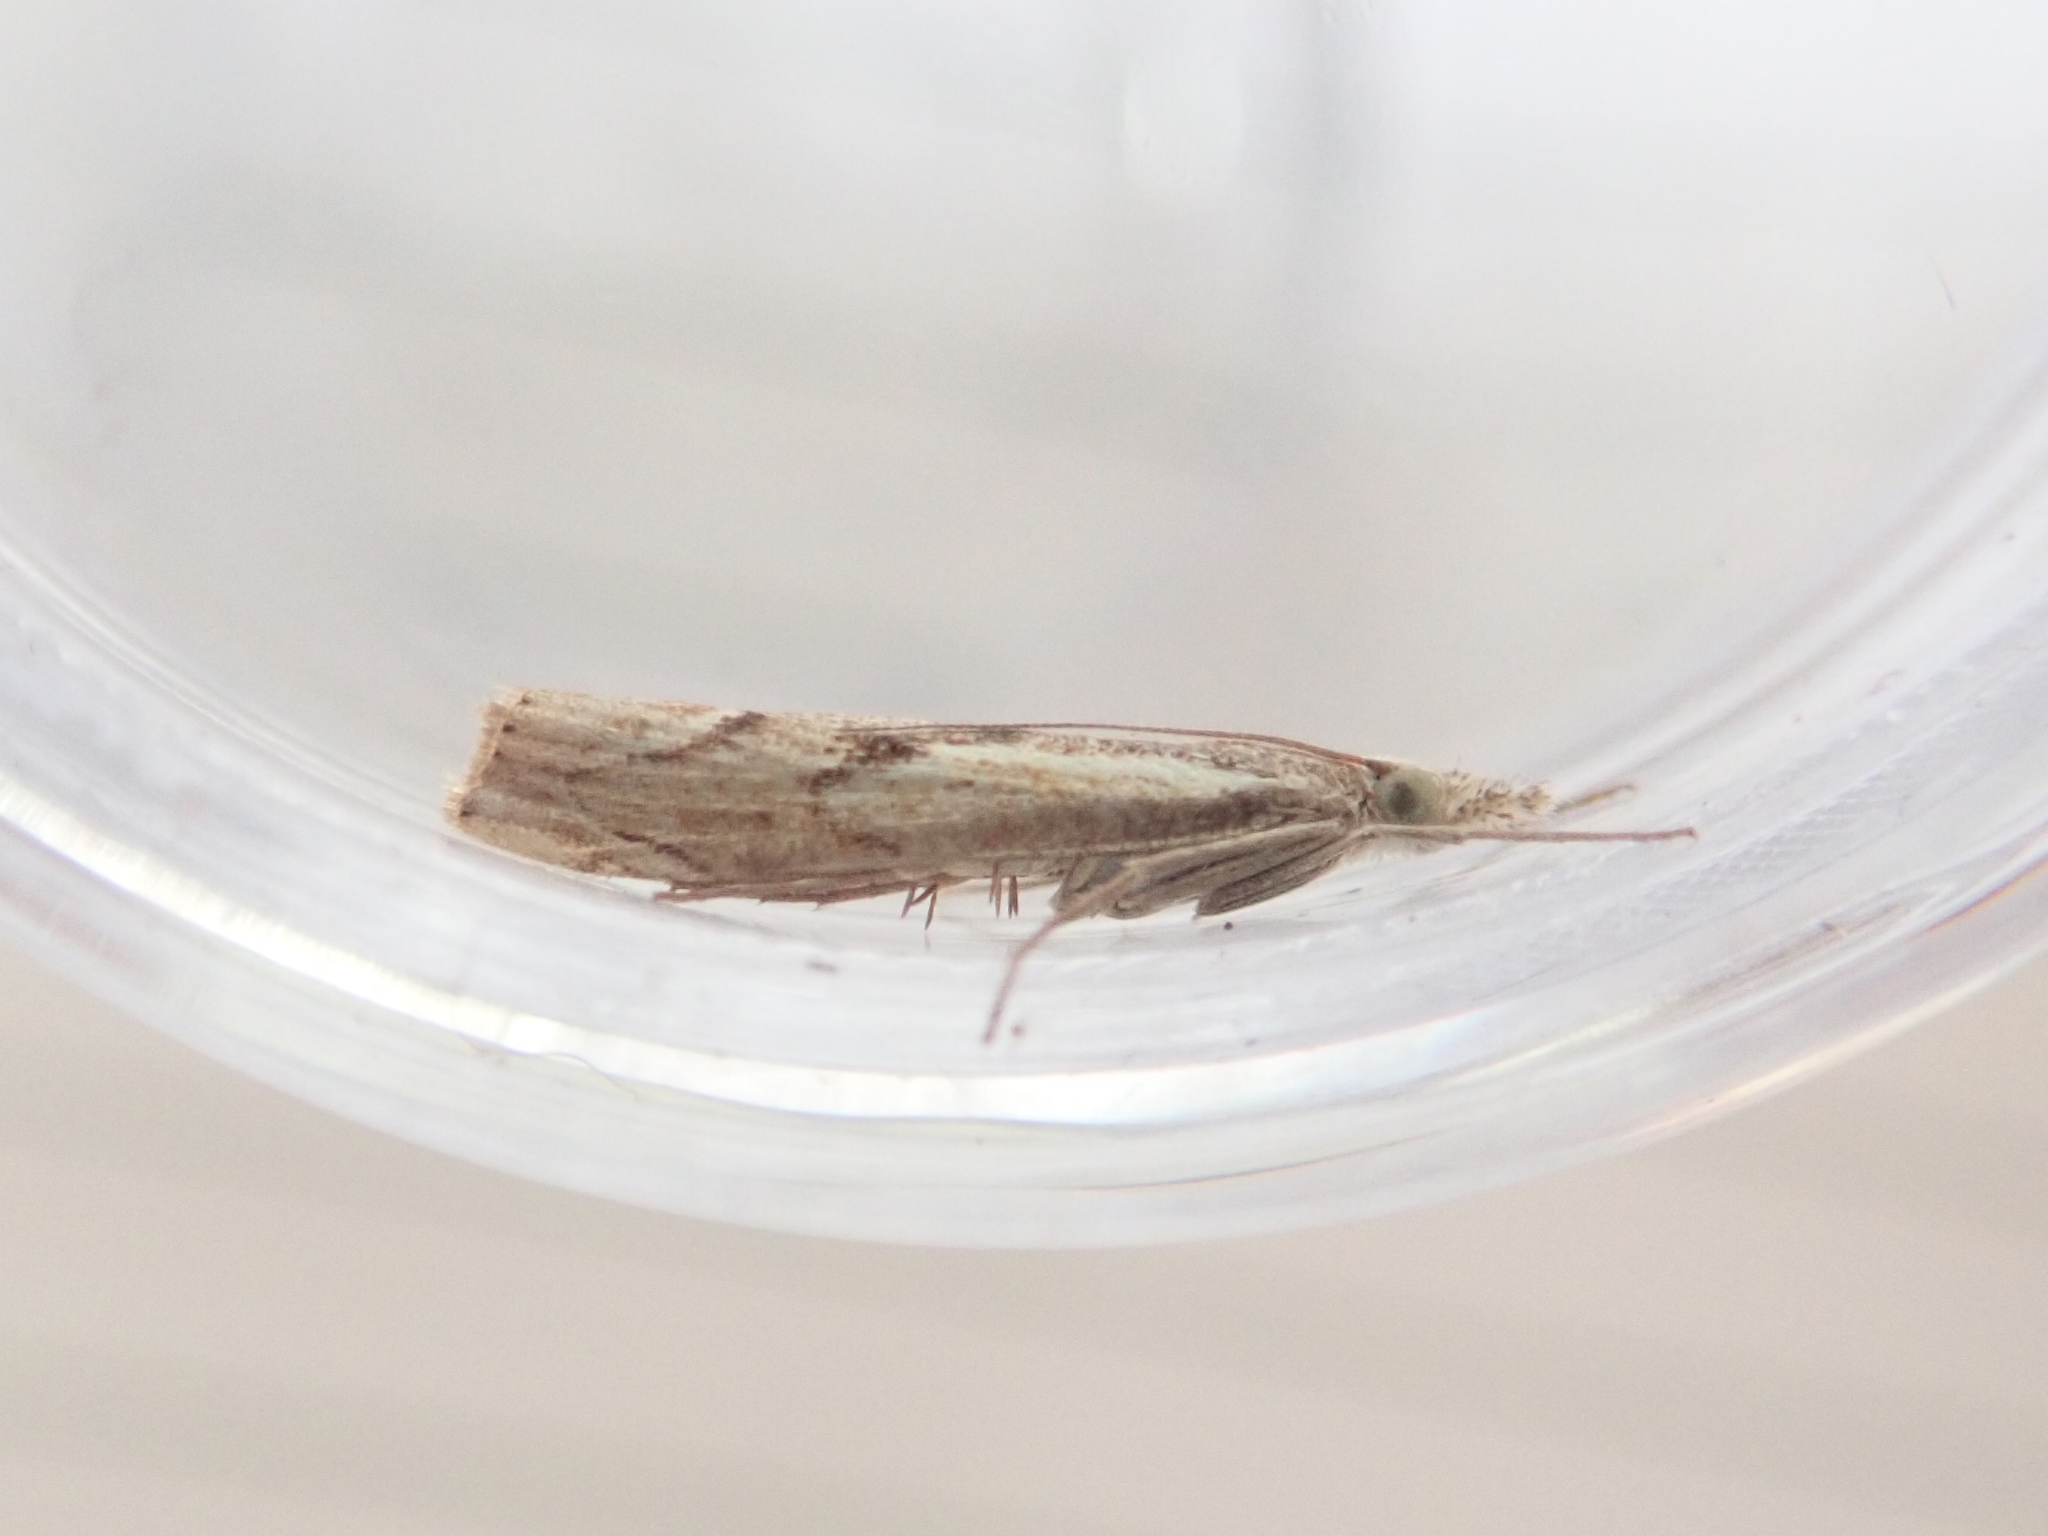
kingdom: Animalia
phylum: Arthropoda
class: Insecta
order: Lepidoptera
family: Crambidae
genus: Agriphila
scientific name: Agriphila geniculea
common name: Elbow-stripe grass-veneer
